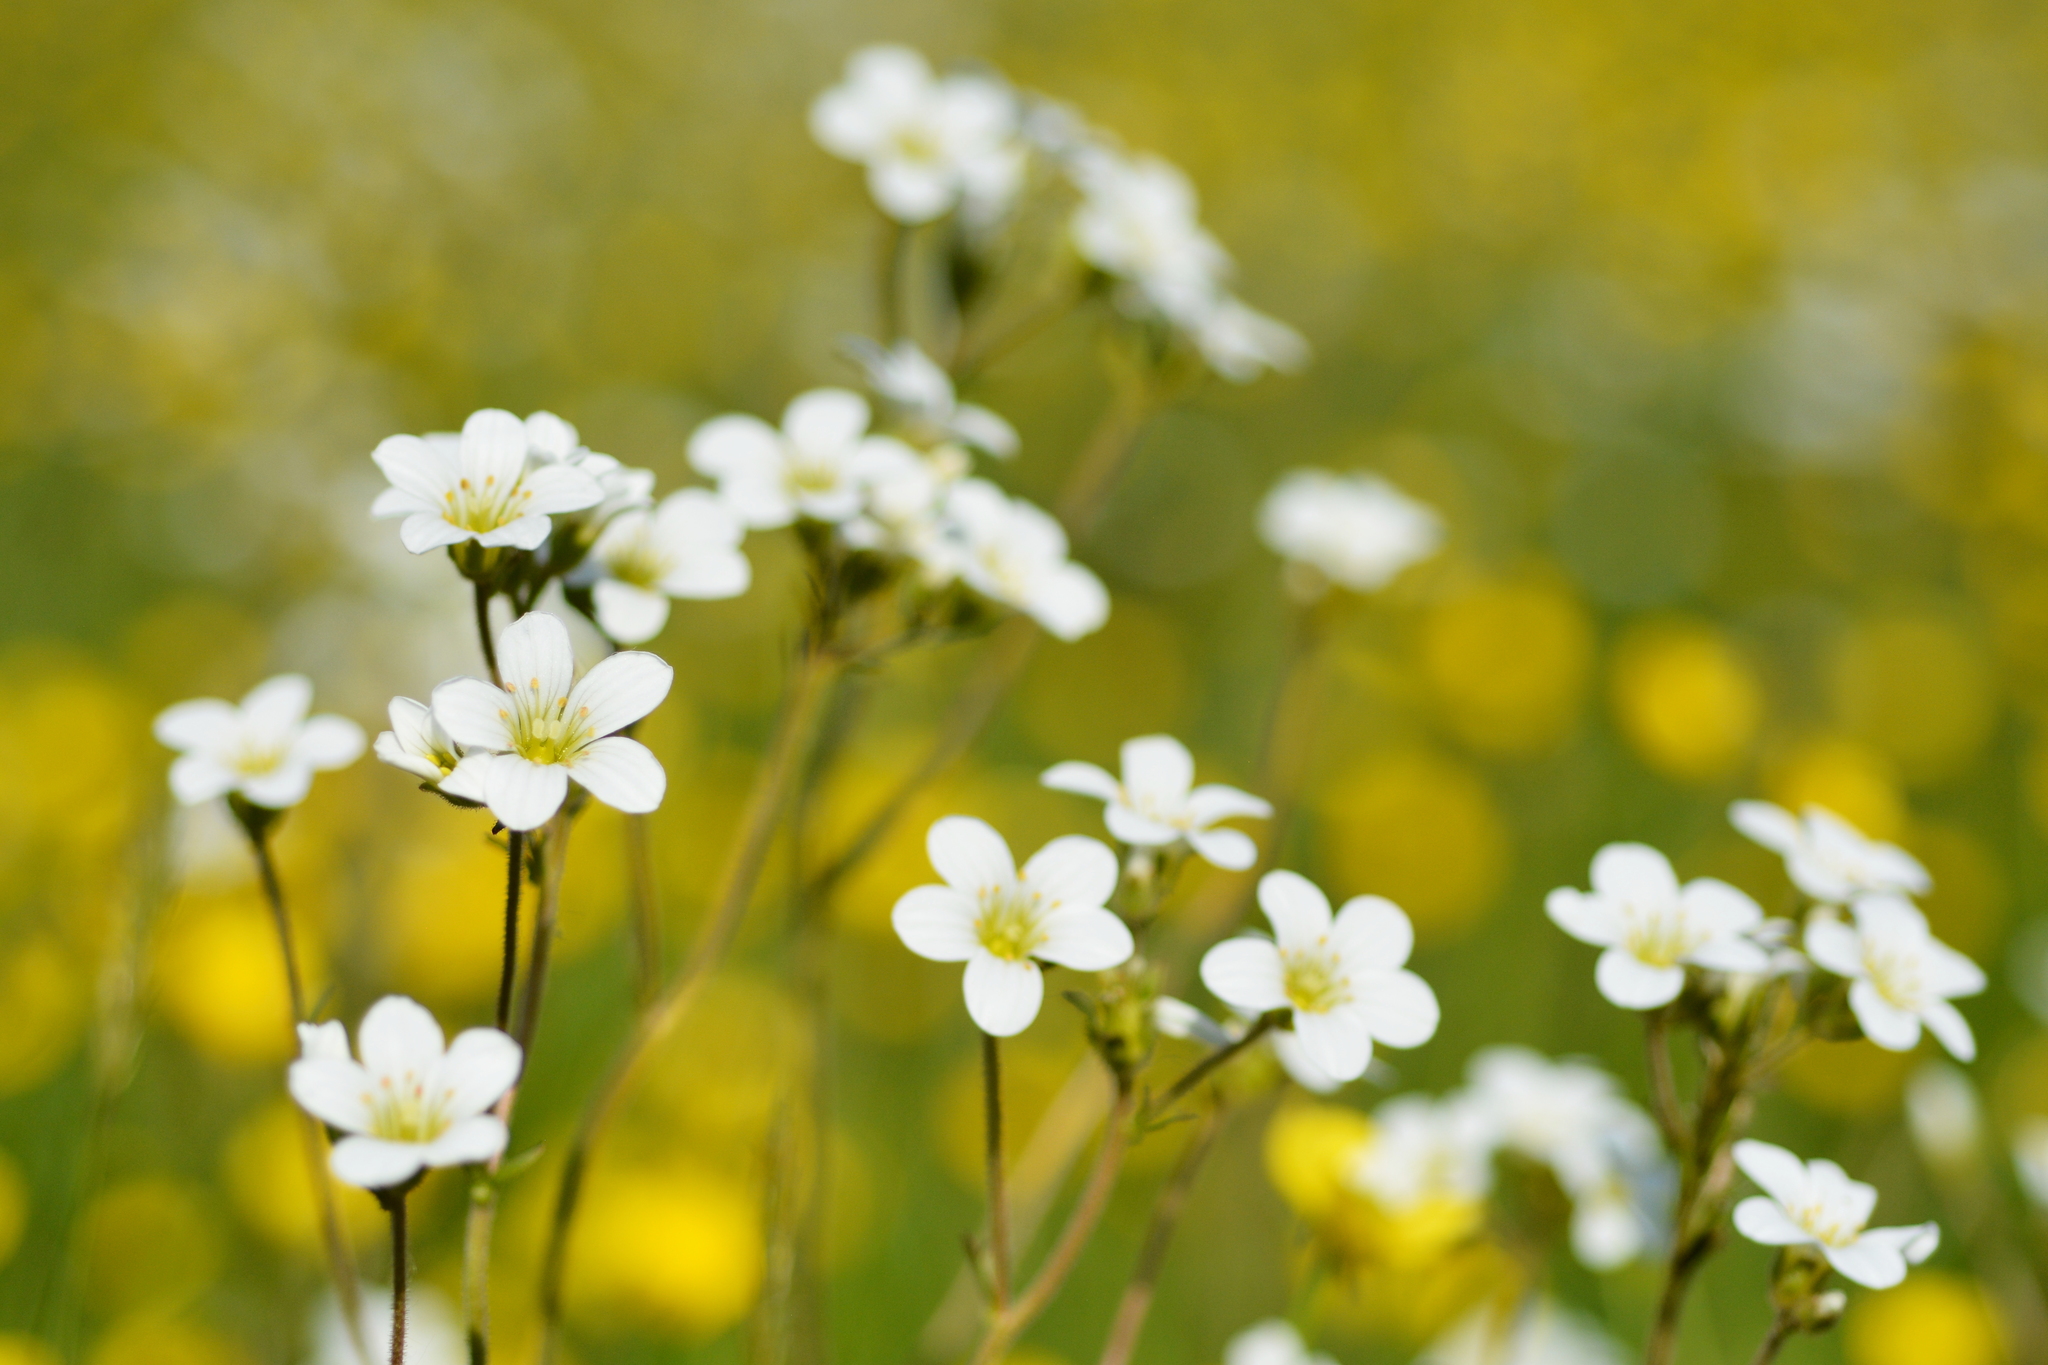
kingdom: Plantae
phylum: Tracheophyta
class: Magnoliopsida
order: Saxifragales
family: Saxifragaceae
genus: Saxifraga
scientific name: Saxifraga granulata
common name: Meadow saxifrage
